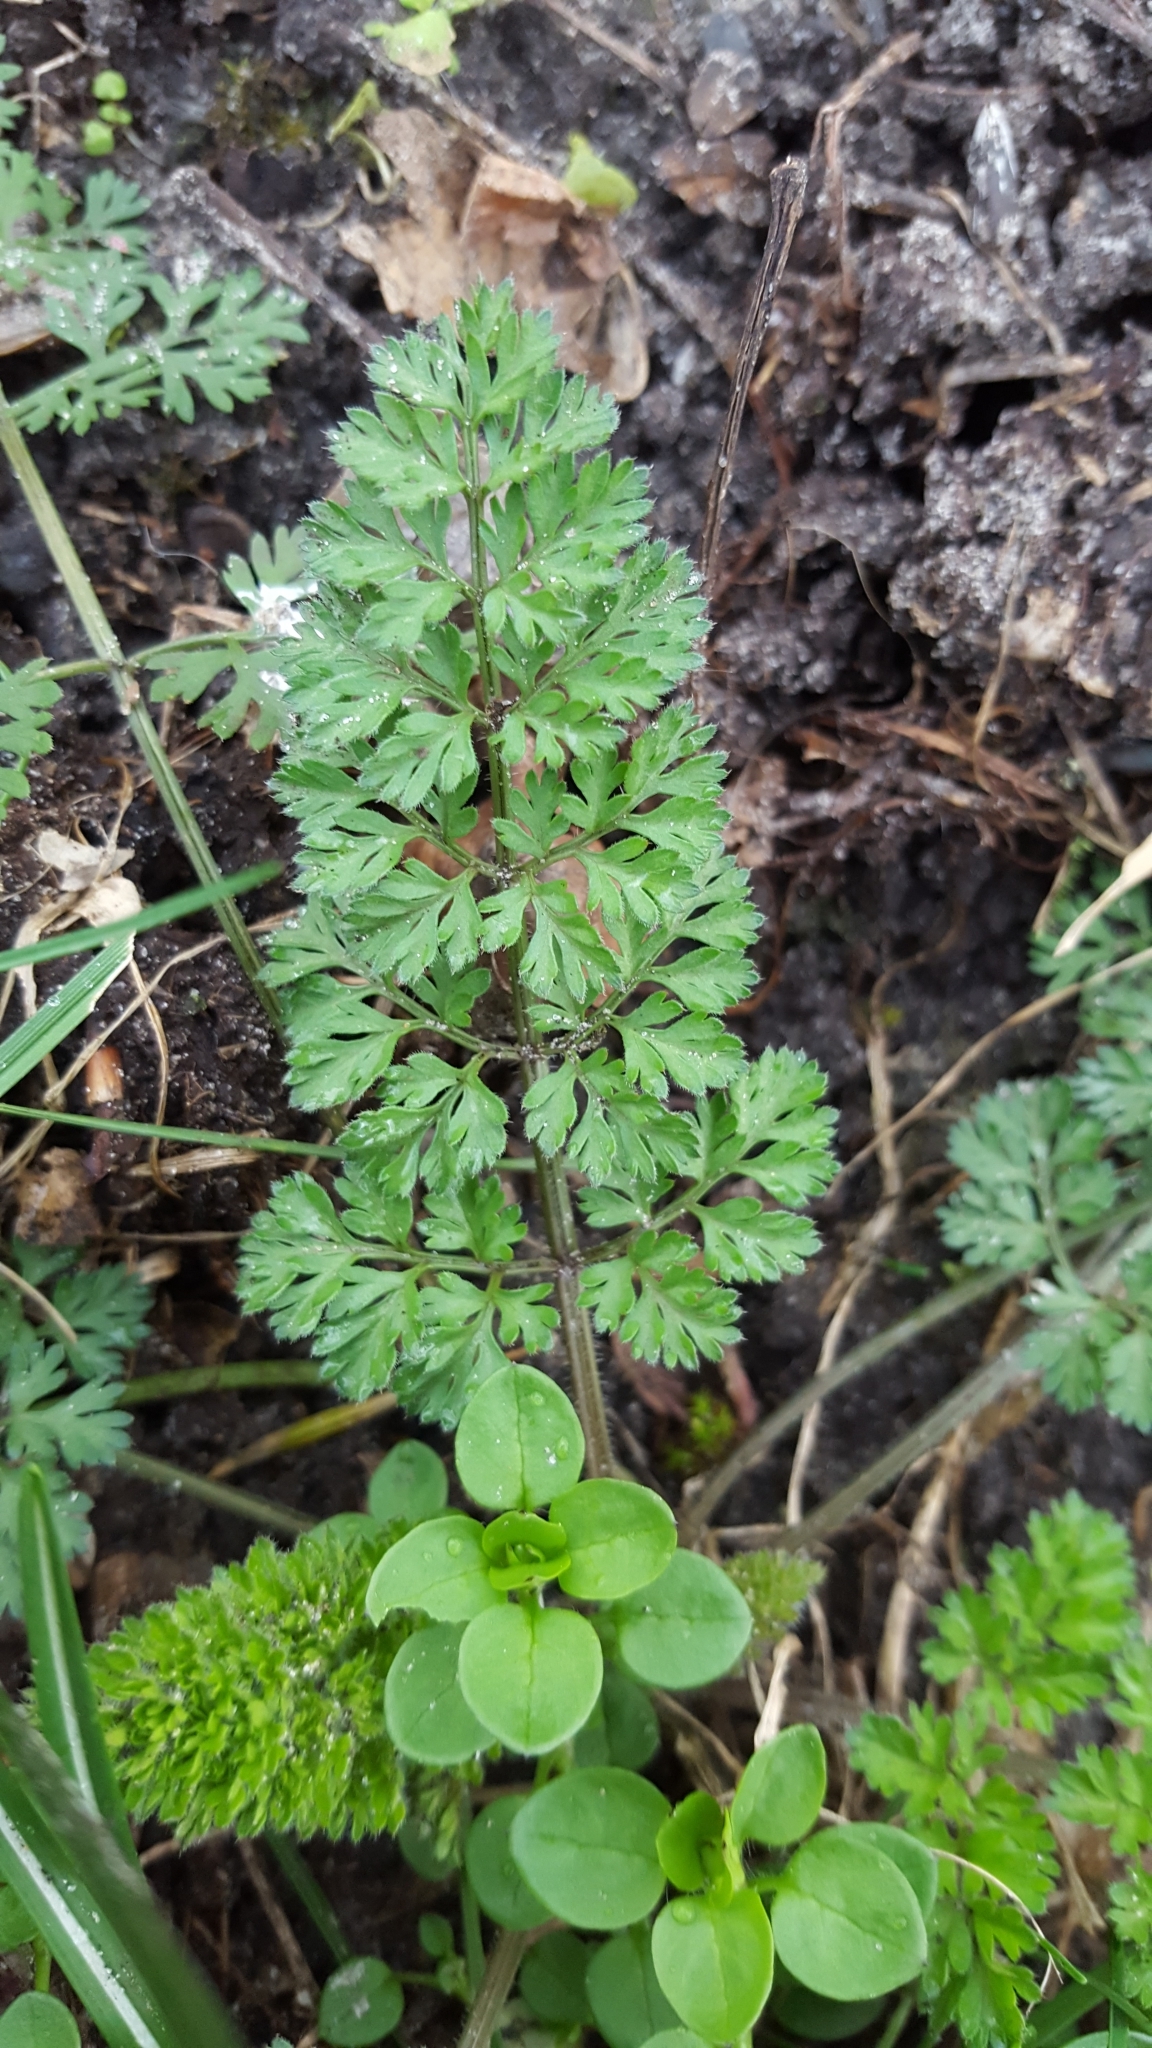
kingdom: Plantae
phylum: Tracheophyta
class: Magnoliopsida
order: Apiales
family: Apiaceae
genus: Anthriscus
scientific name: Anthriscus caucalis
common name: Bur chervil
